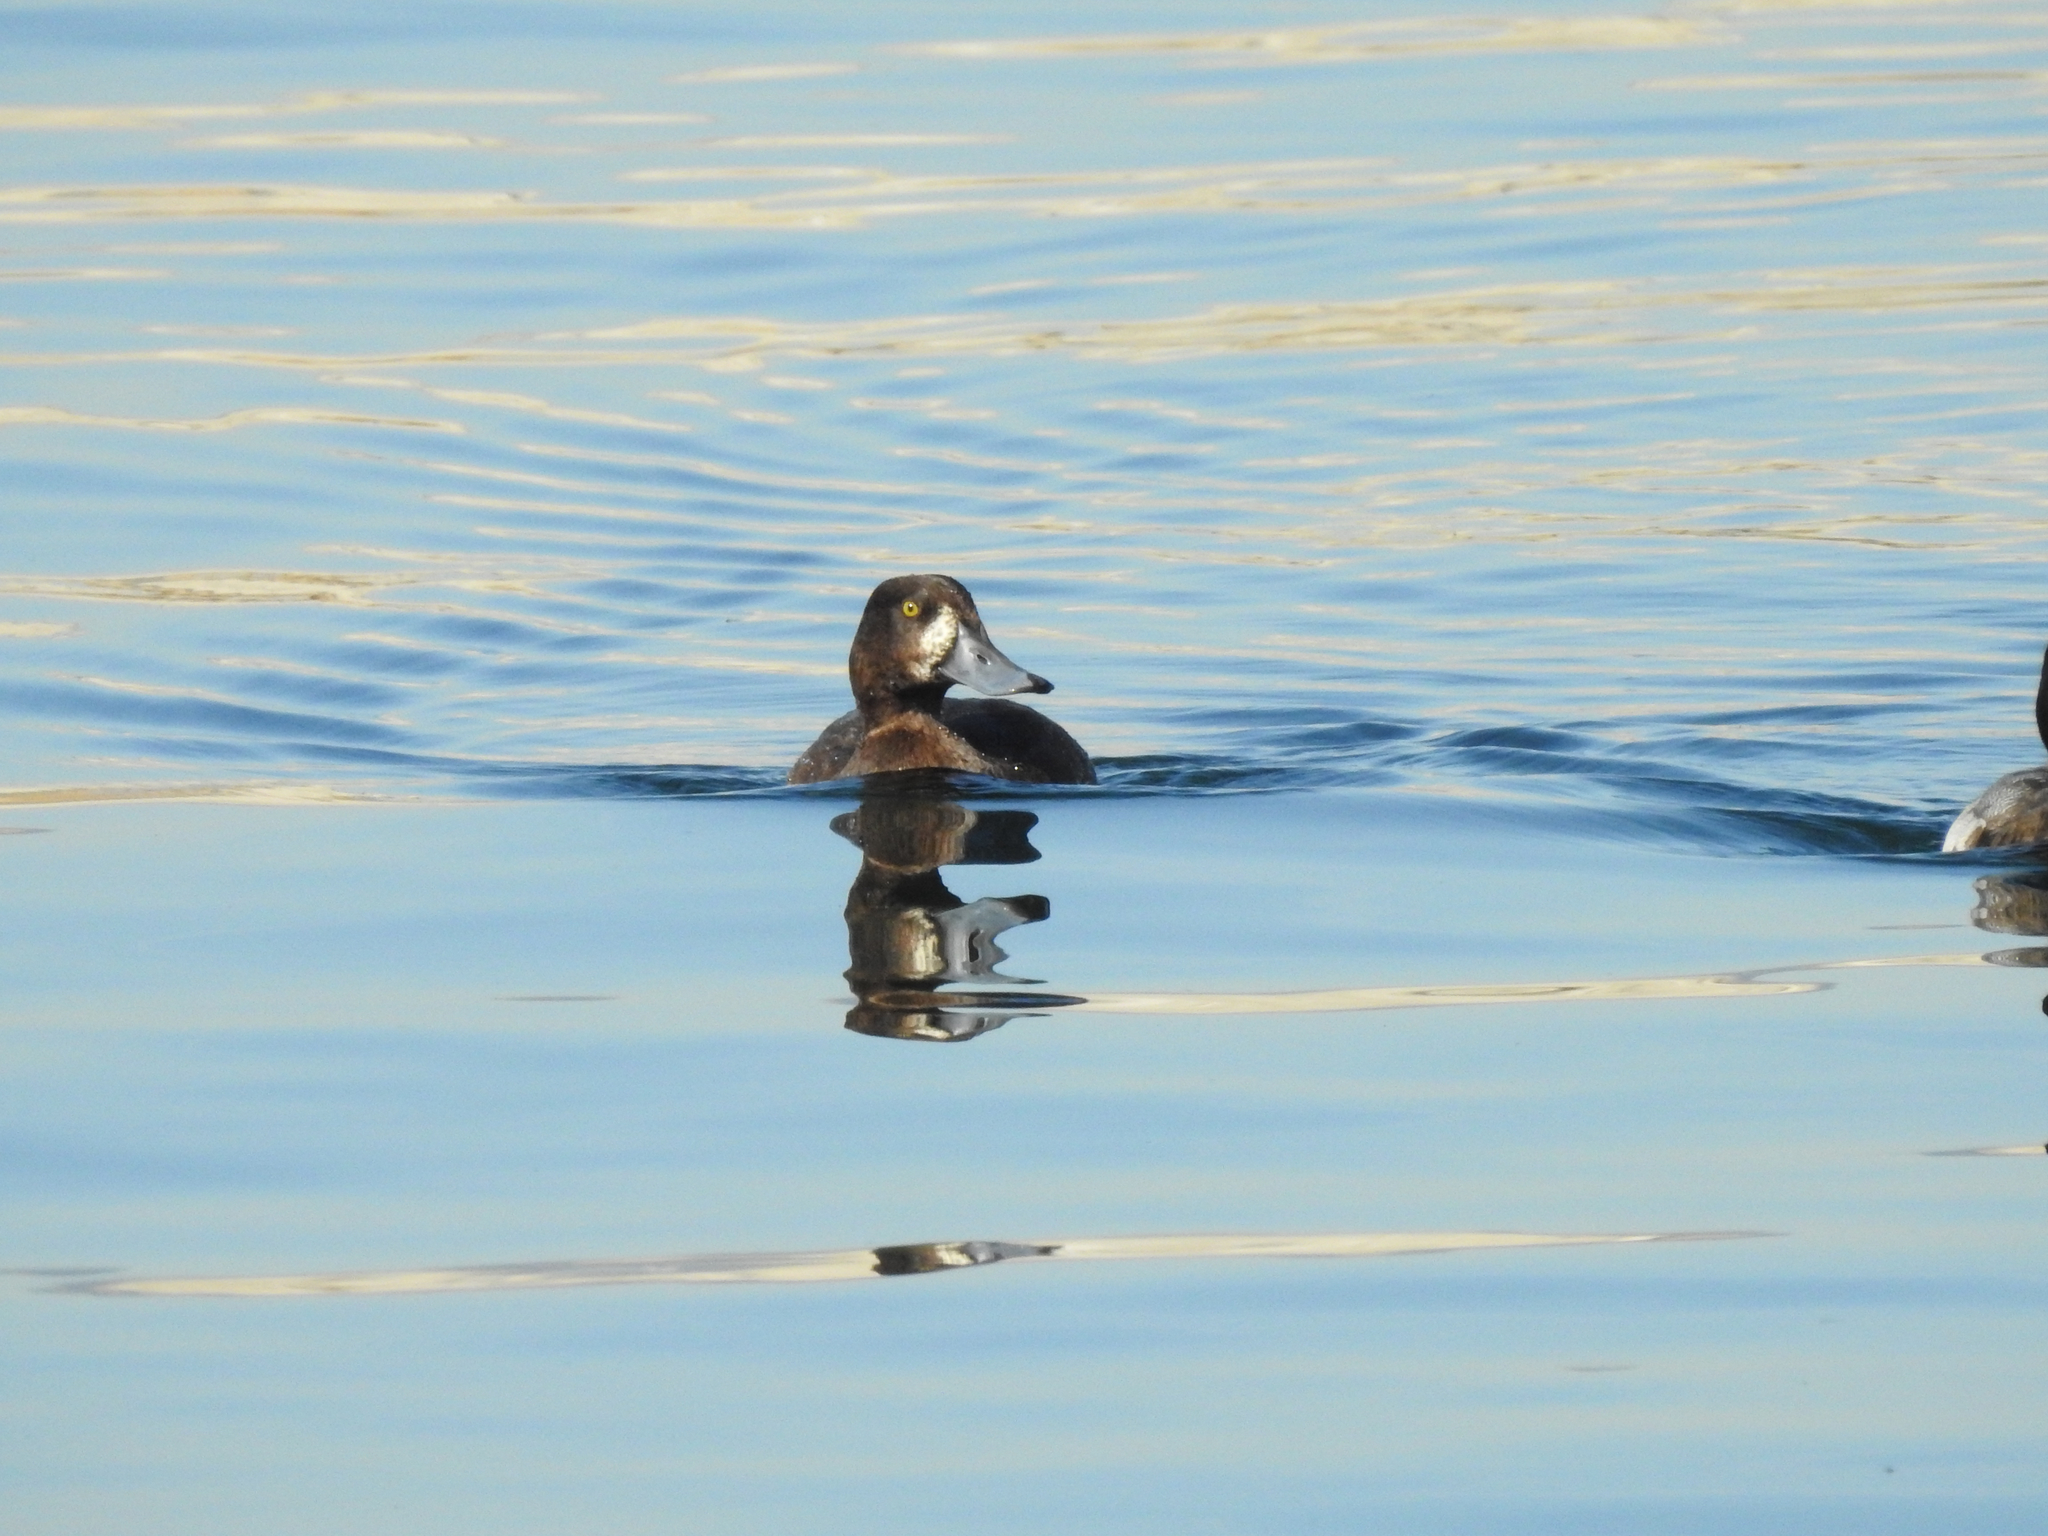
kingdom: Animalia
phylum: Chordata
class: Aves
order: Anseriformes
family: Anatidae
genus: Aythya
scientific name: Aythya marila
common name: Greater scaup
